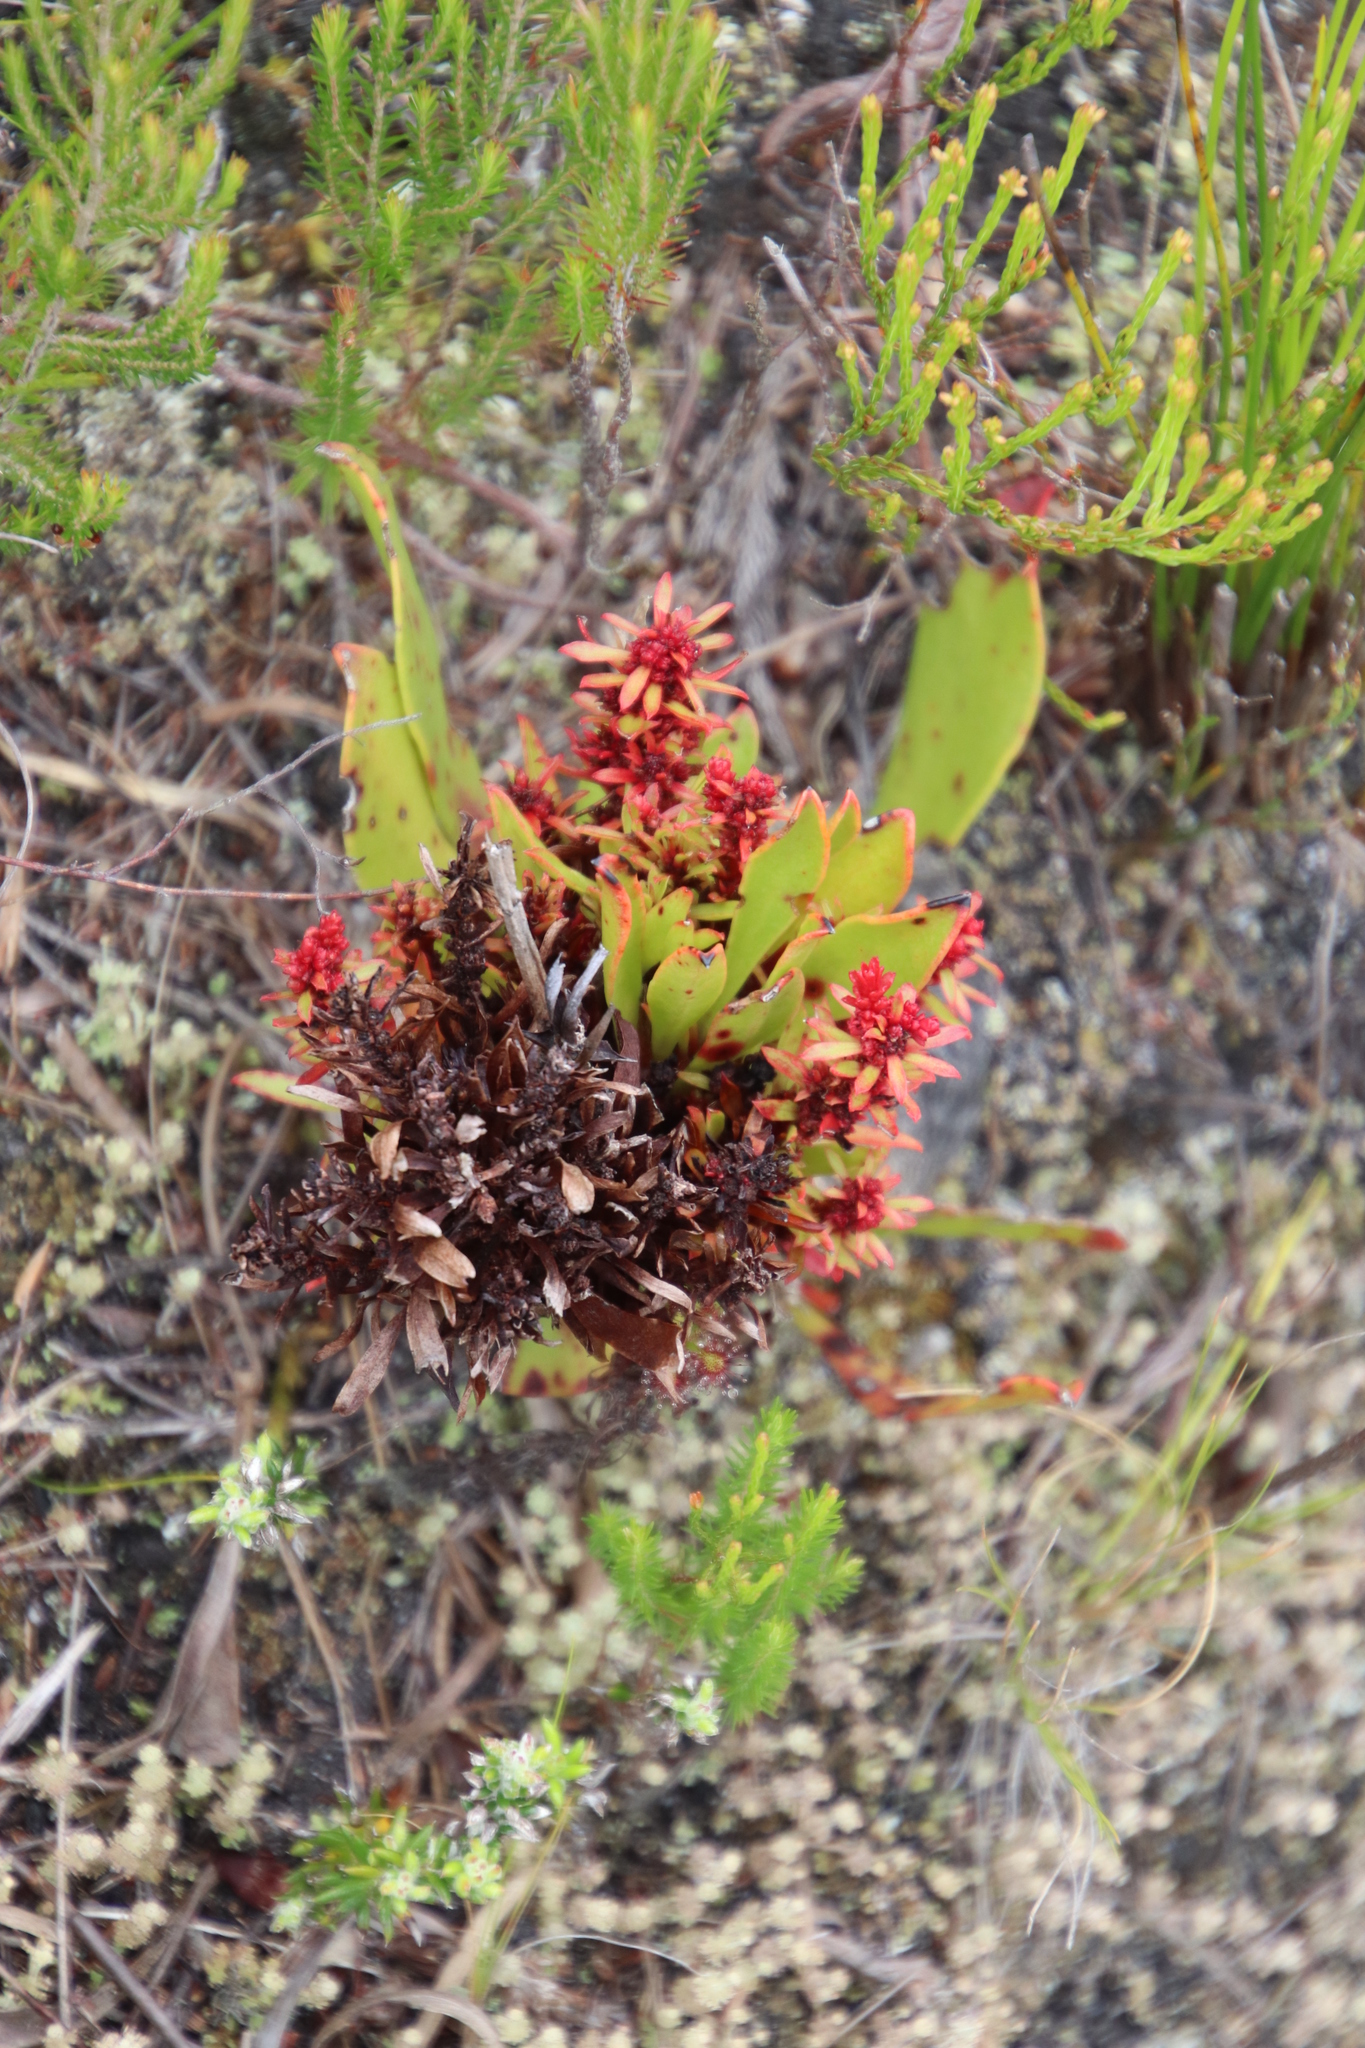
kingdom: Bacteria
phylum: Firmicutes
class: Bacilli
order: Acholeplasmatales
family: Acholeplasmataceae
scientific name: Acholeplasmataceae
